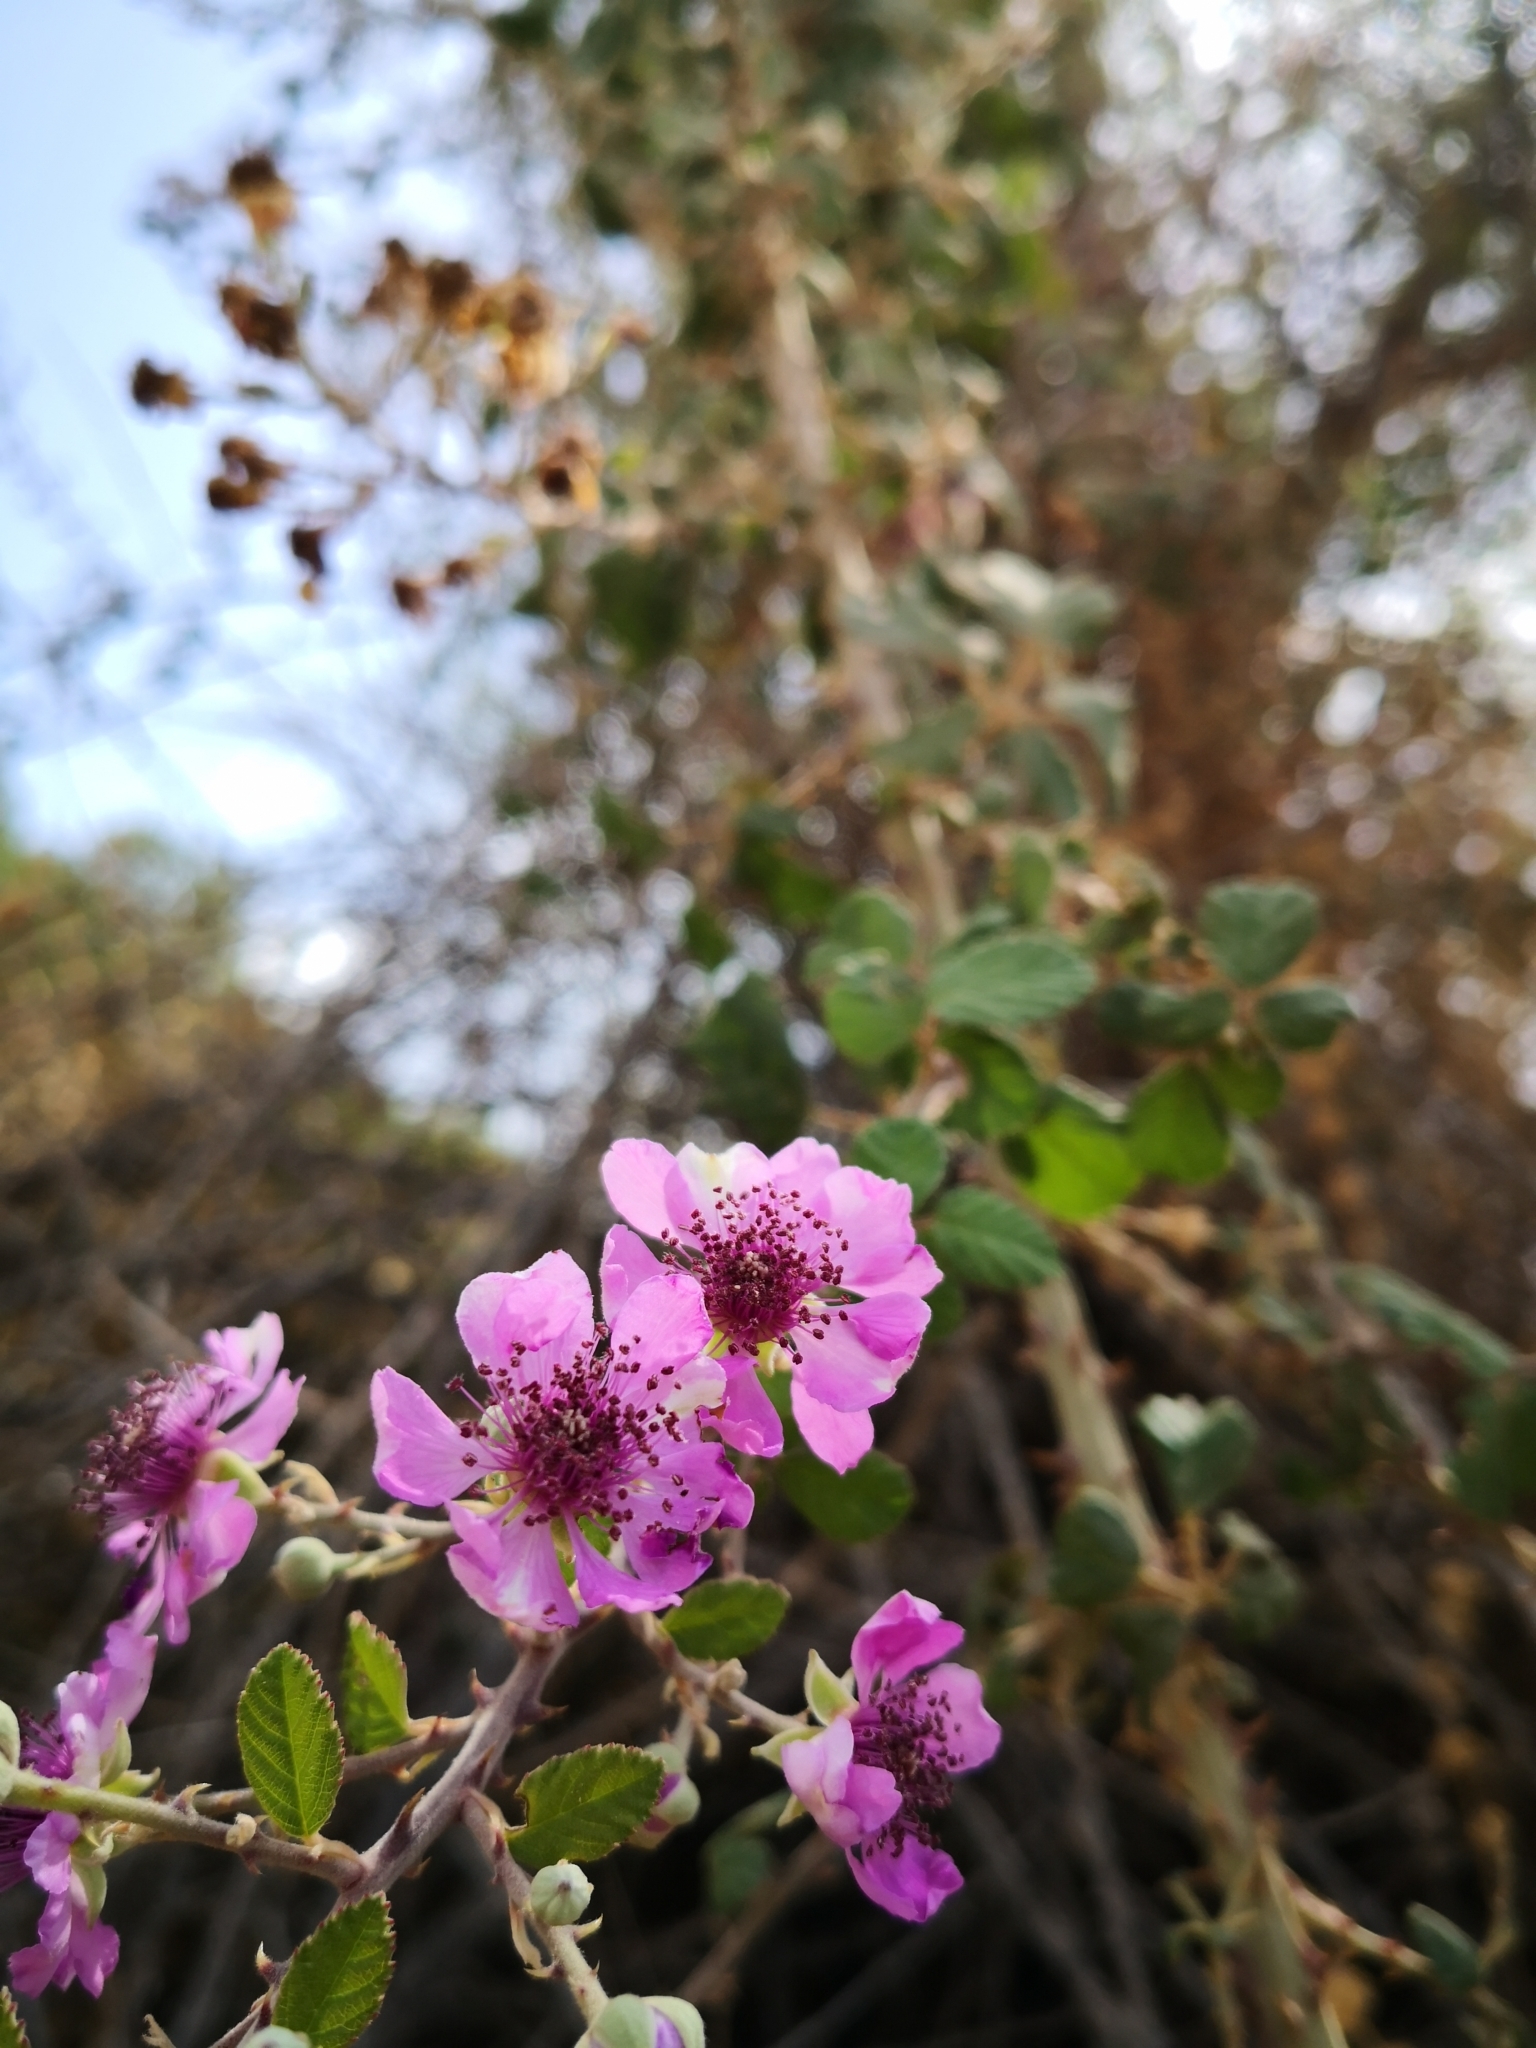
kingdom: Plantae
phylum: Tracheophyta
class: Magnoliopsida
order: Rosales
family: Rosaceae
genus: Rubus
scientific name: Rubus sanctus
